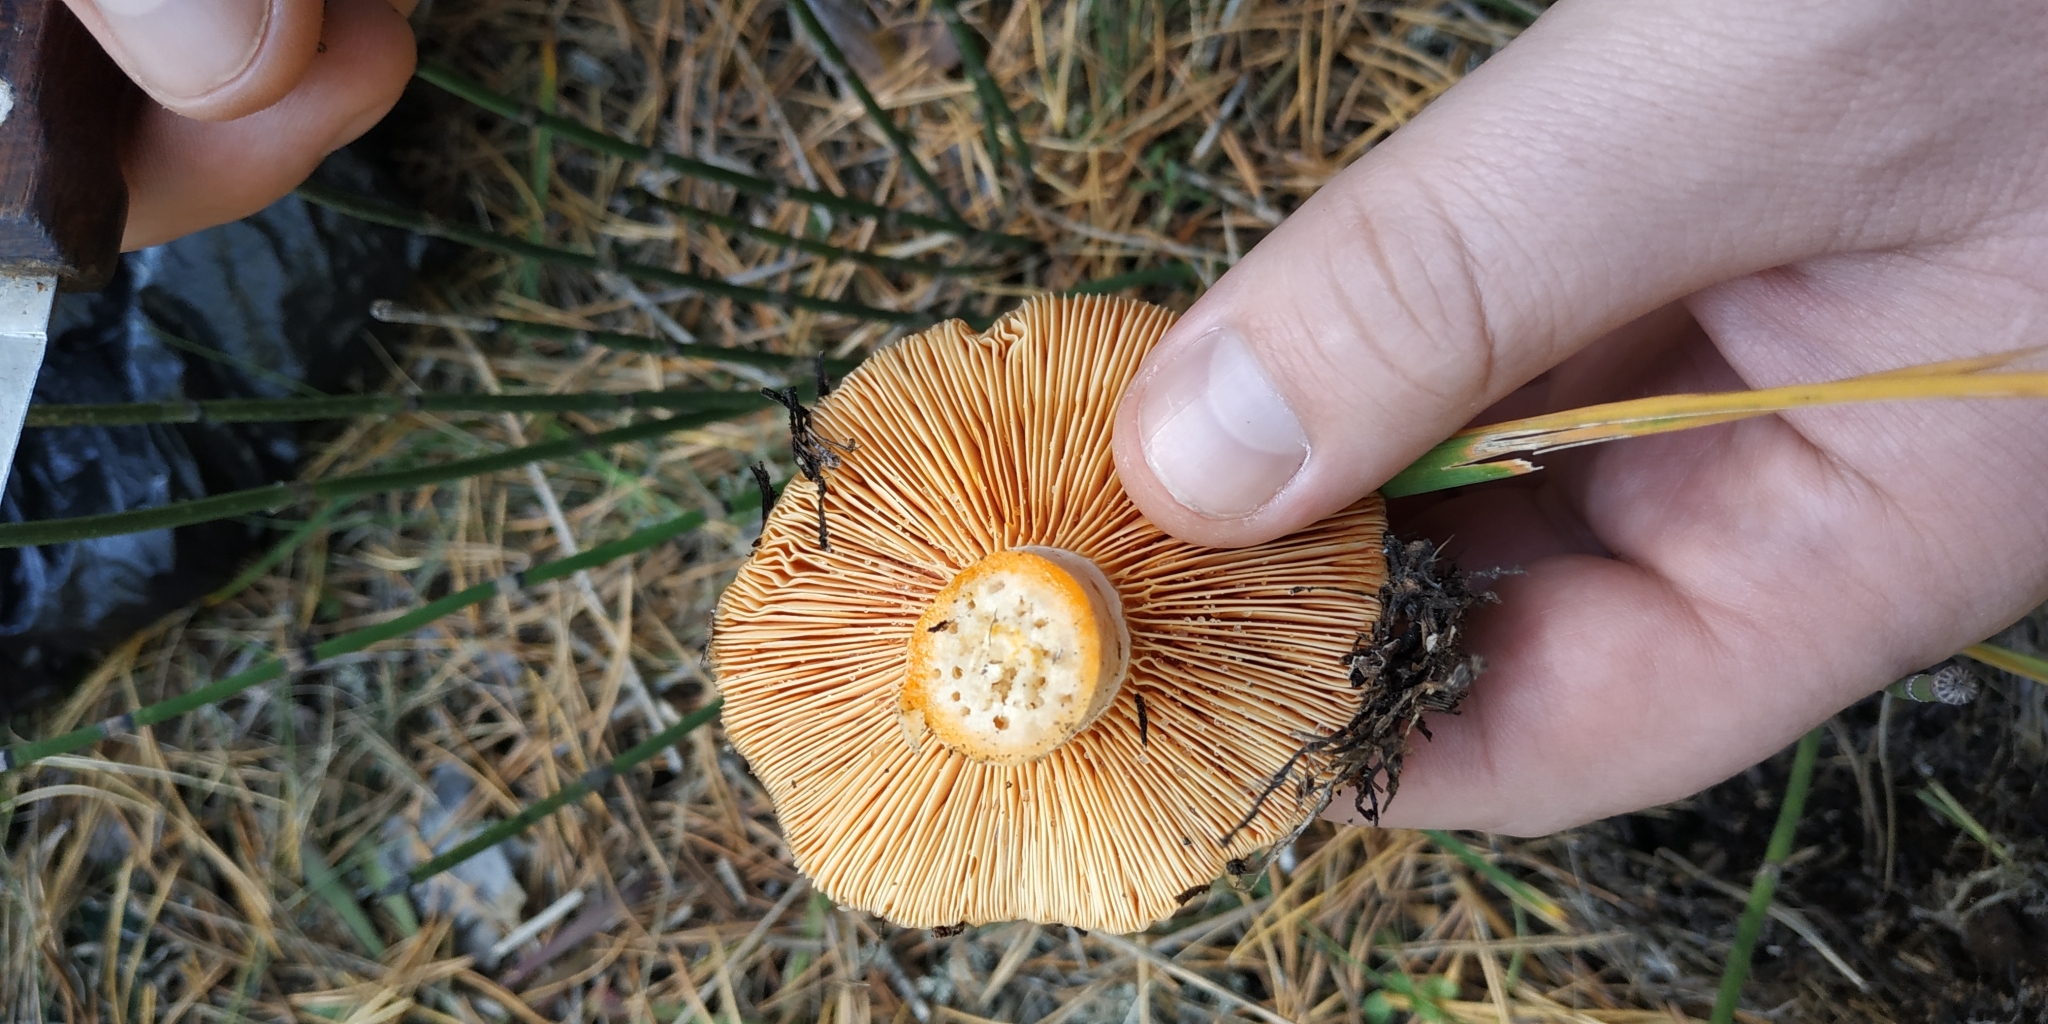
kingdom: Fungi
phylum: Basidiomycota
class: Agaricomycetes
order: Russulales
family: Russulaceae
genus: Lactarius
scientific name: Lactarius deliciosus
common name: Saffron milk-cap
